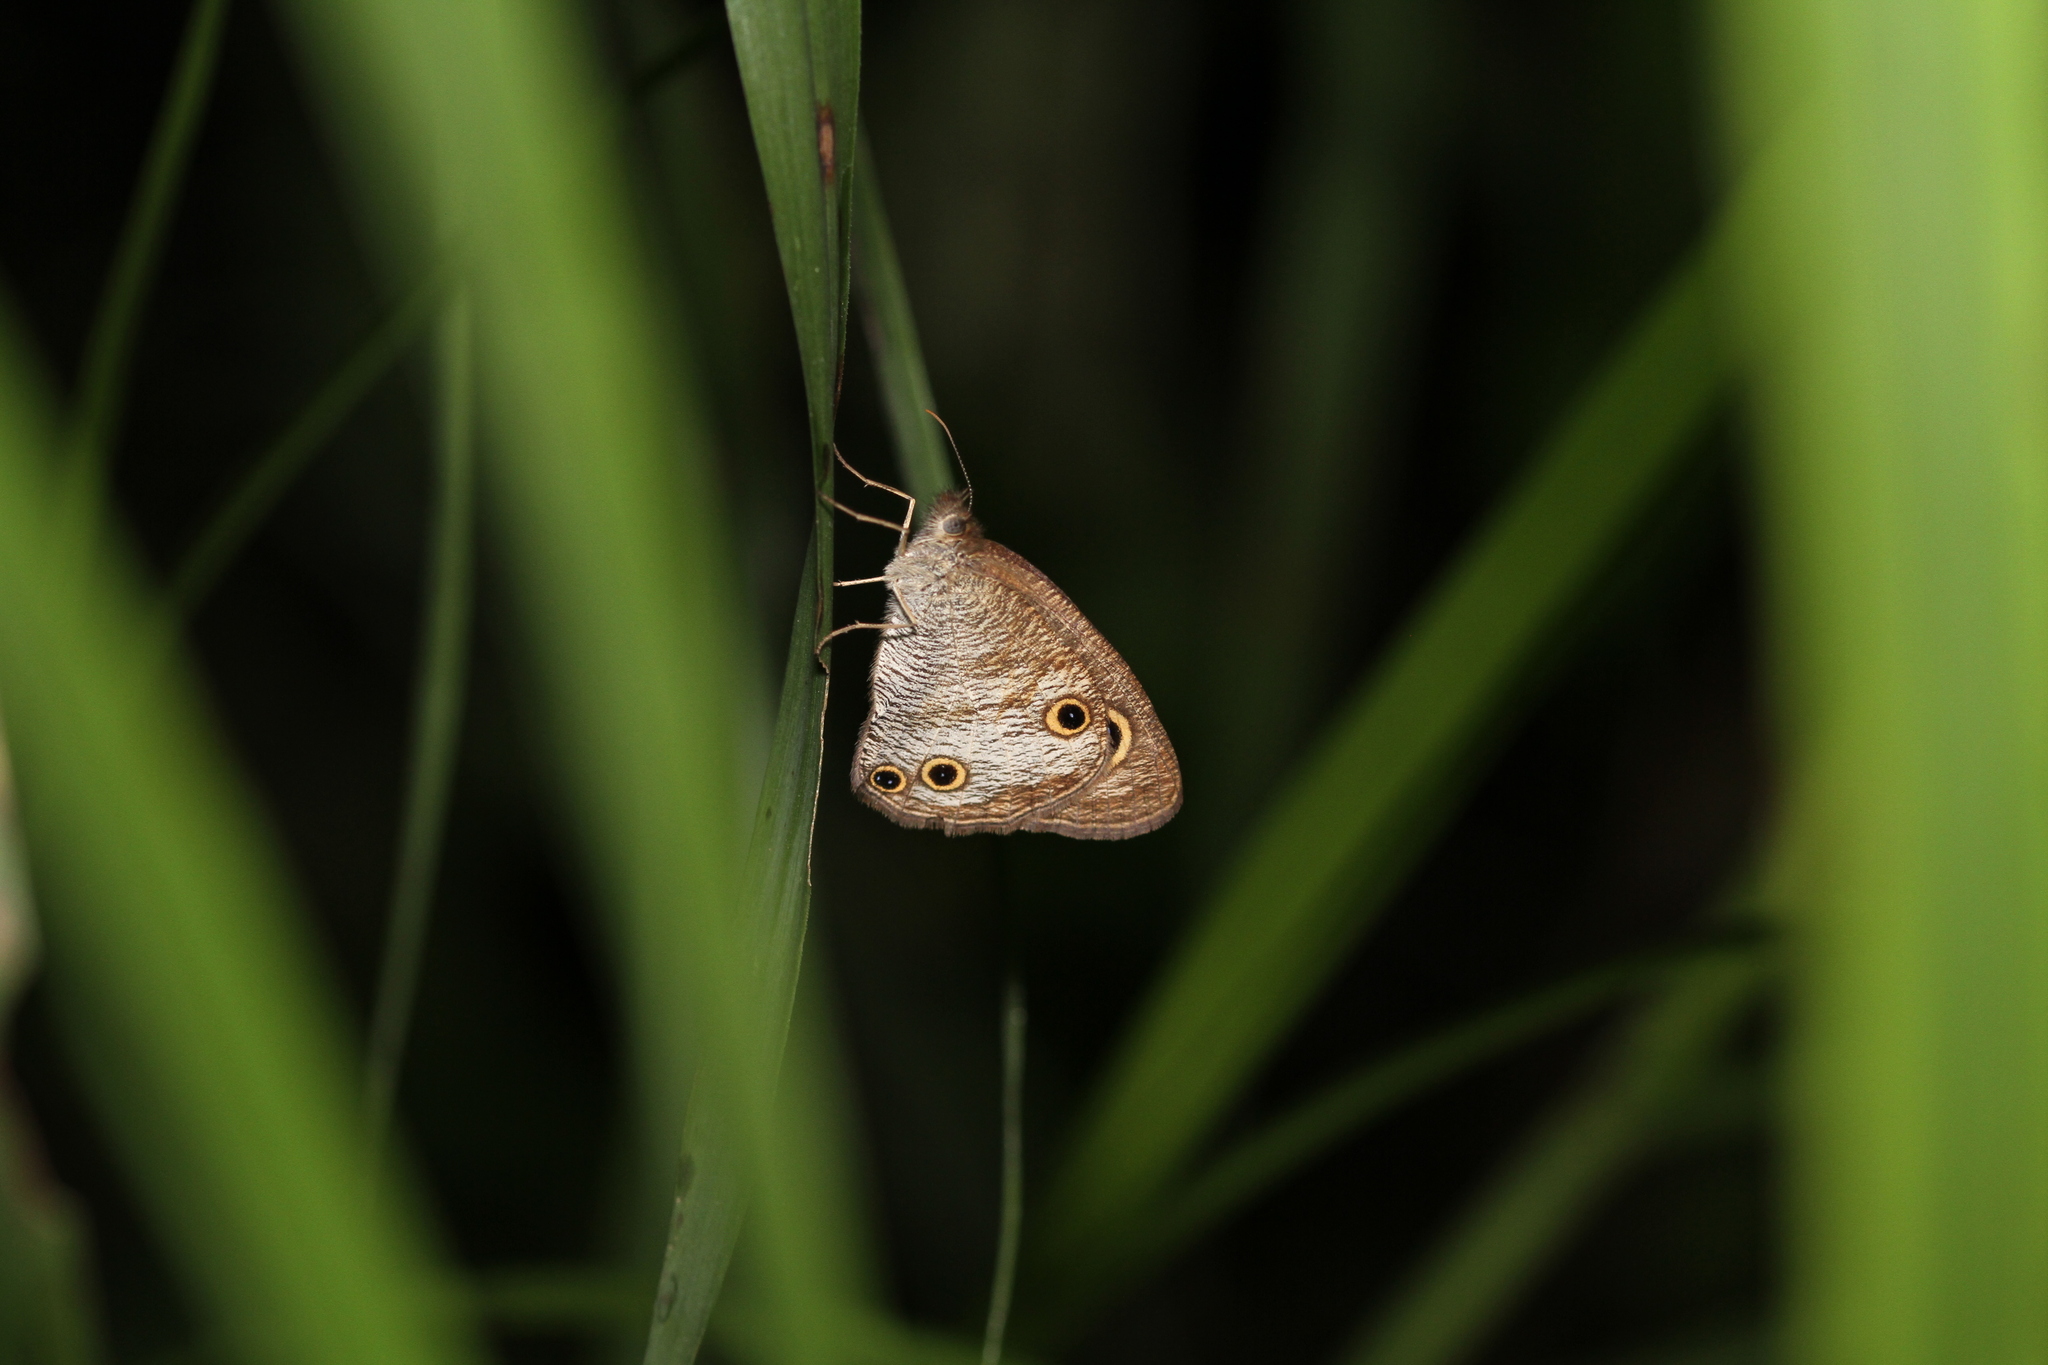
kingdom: Animalia
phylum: Arthropoda
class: Insecta
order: Lepidoptera
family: Nymphalidae
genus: Ypthima
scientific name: Ypthima pandocus
